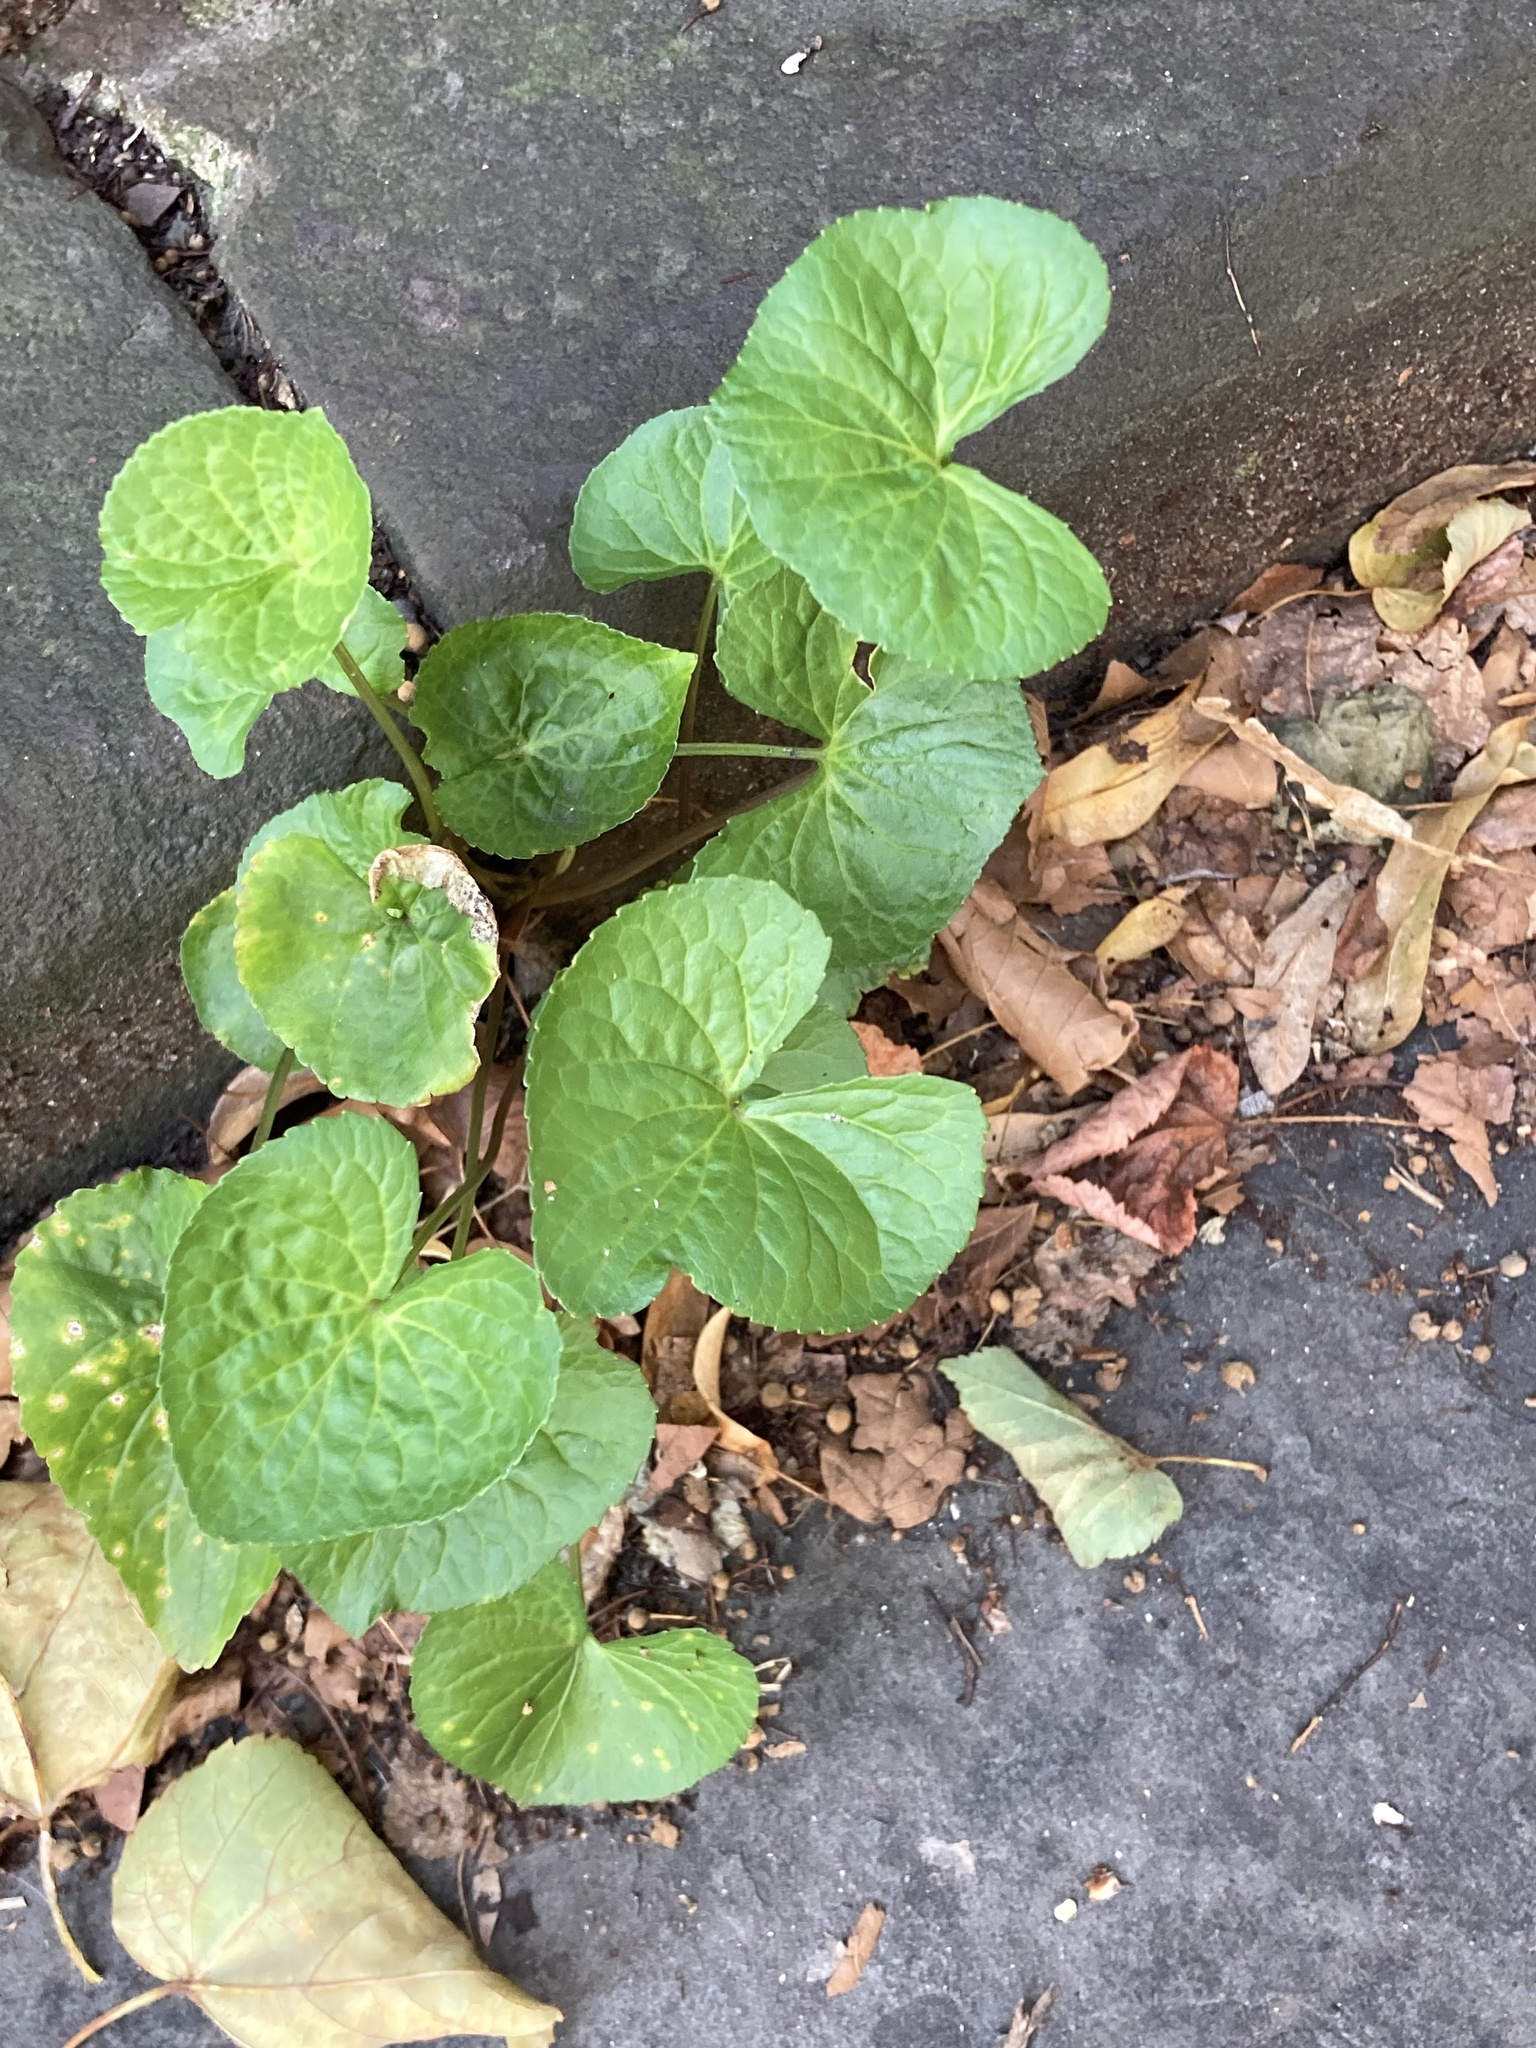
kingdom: Fungi
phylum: Basidiomycota
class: Pucciniomycetes
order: Pucciniales
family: Pucciniaceae
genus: Puccinia
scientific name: Puccinia violae
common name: Violet rust
